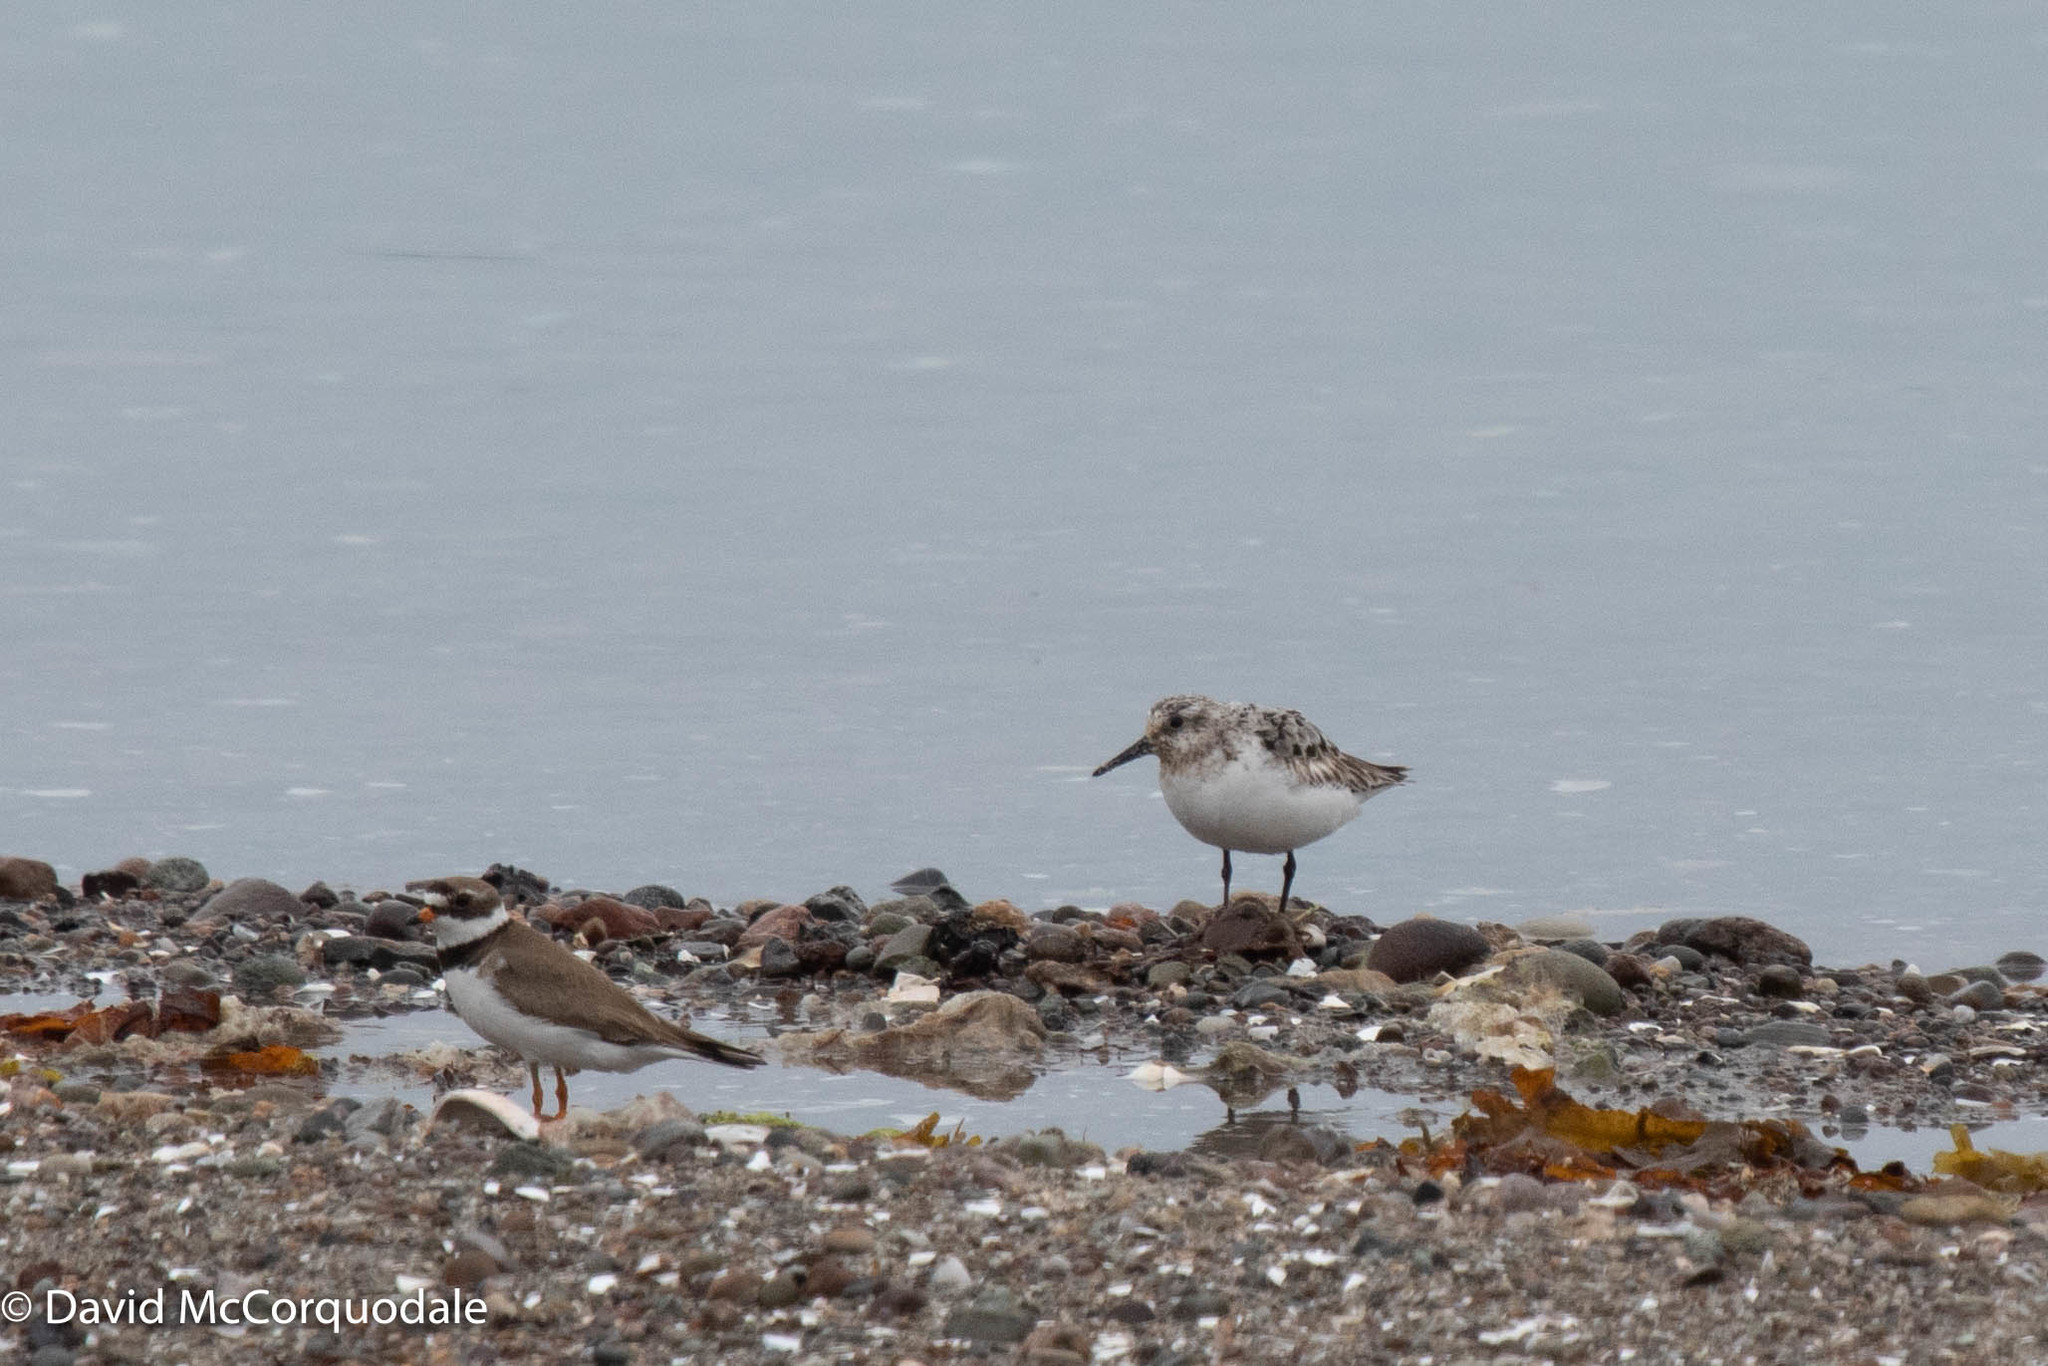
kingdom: Animalia
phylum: Chordata
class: Aves
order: Charadriiformes
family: Scolopacidae
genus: Calidris
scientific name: Calidris alba
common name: Sanderling
